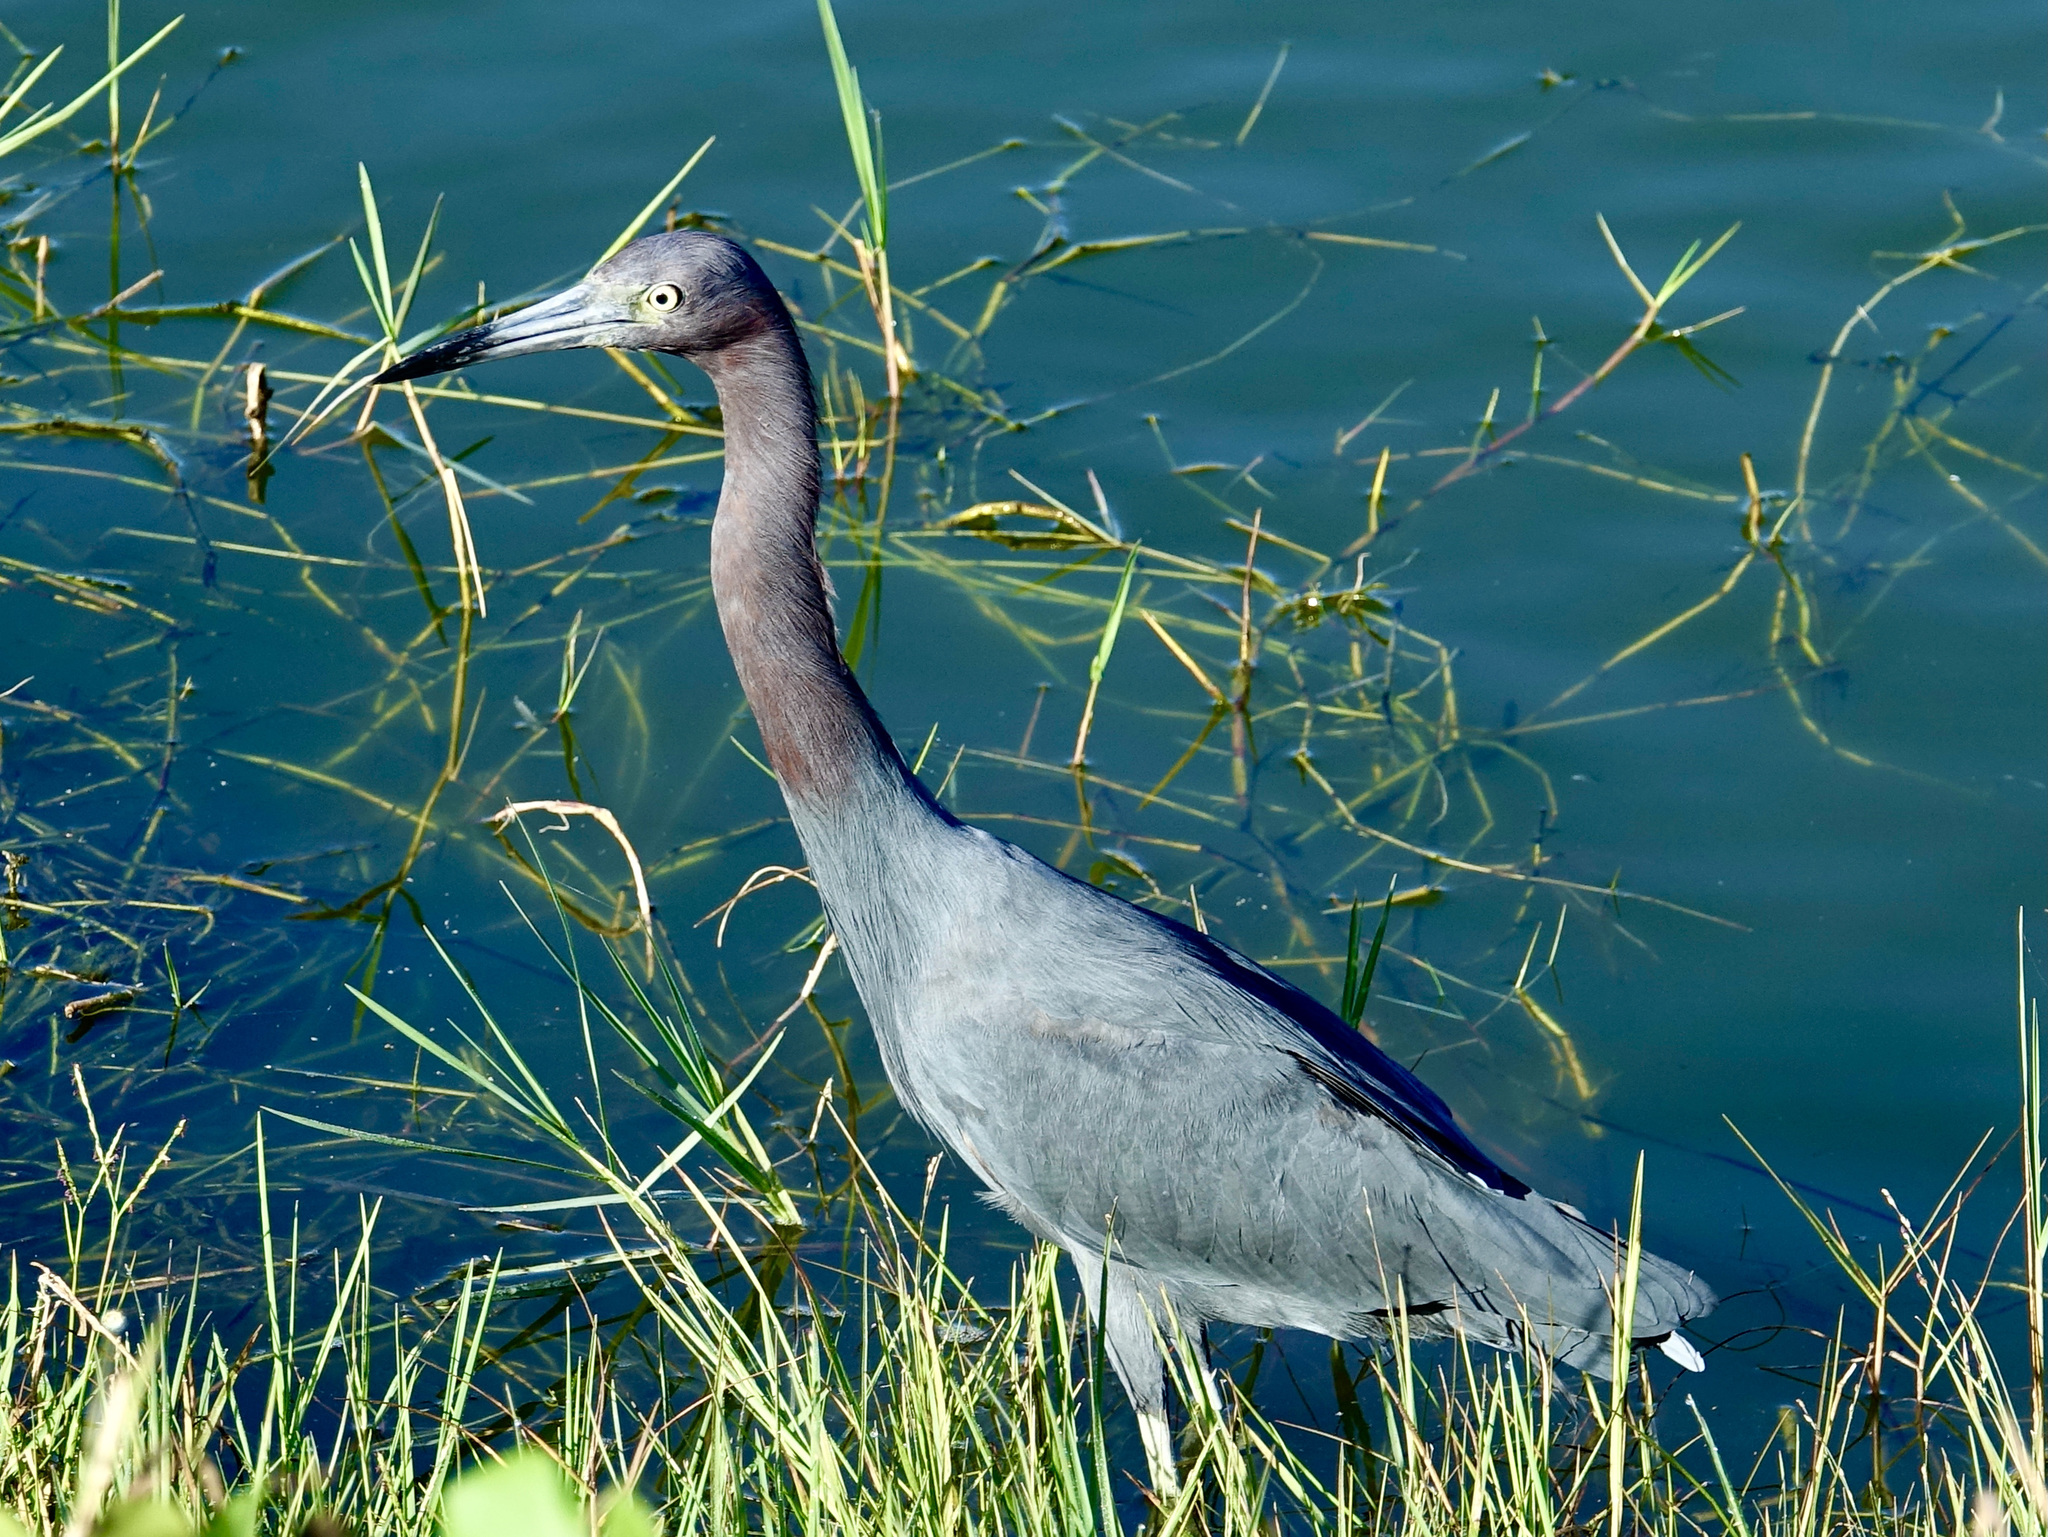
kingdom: Animalia
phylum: Chordata
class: Aves
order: Pelecaniformes
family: Ardeidae
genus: Egretta
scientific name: Egretta caerulea
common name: Little blue heron
